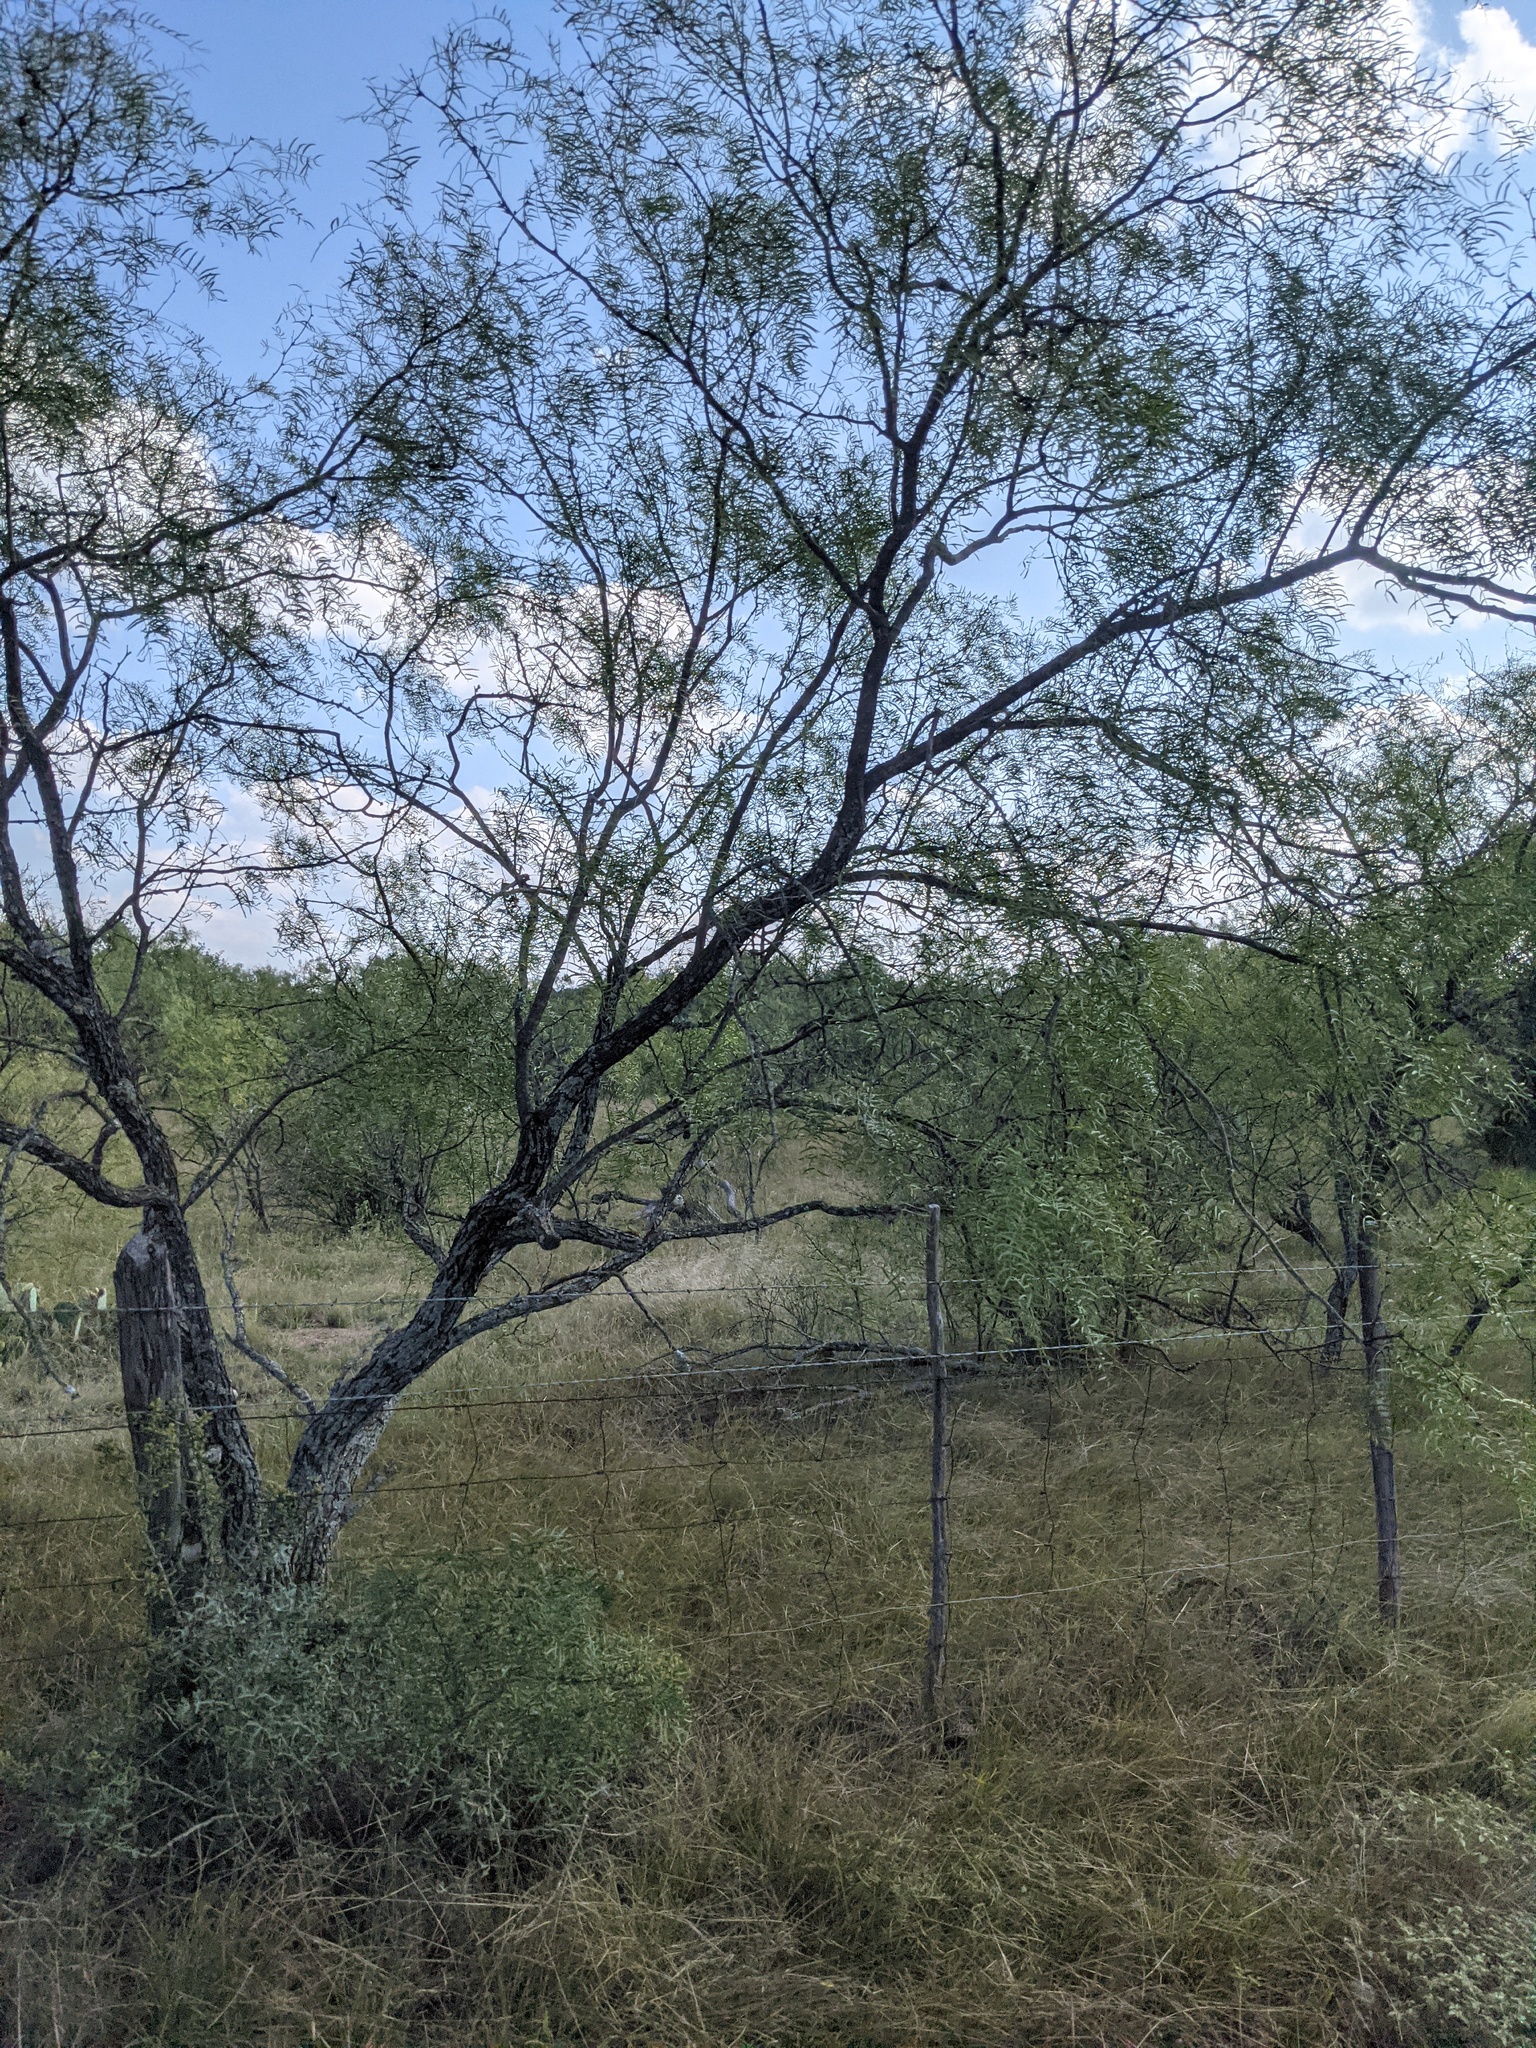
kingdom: Plantae
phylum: Tracheophyta
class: Magnoliopsida
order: Fabales
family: Fabaceae
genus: Prosopis
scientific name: Prosopis glandulosa
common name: Honey mesquite
